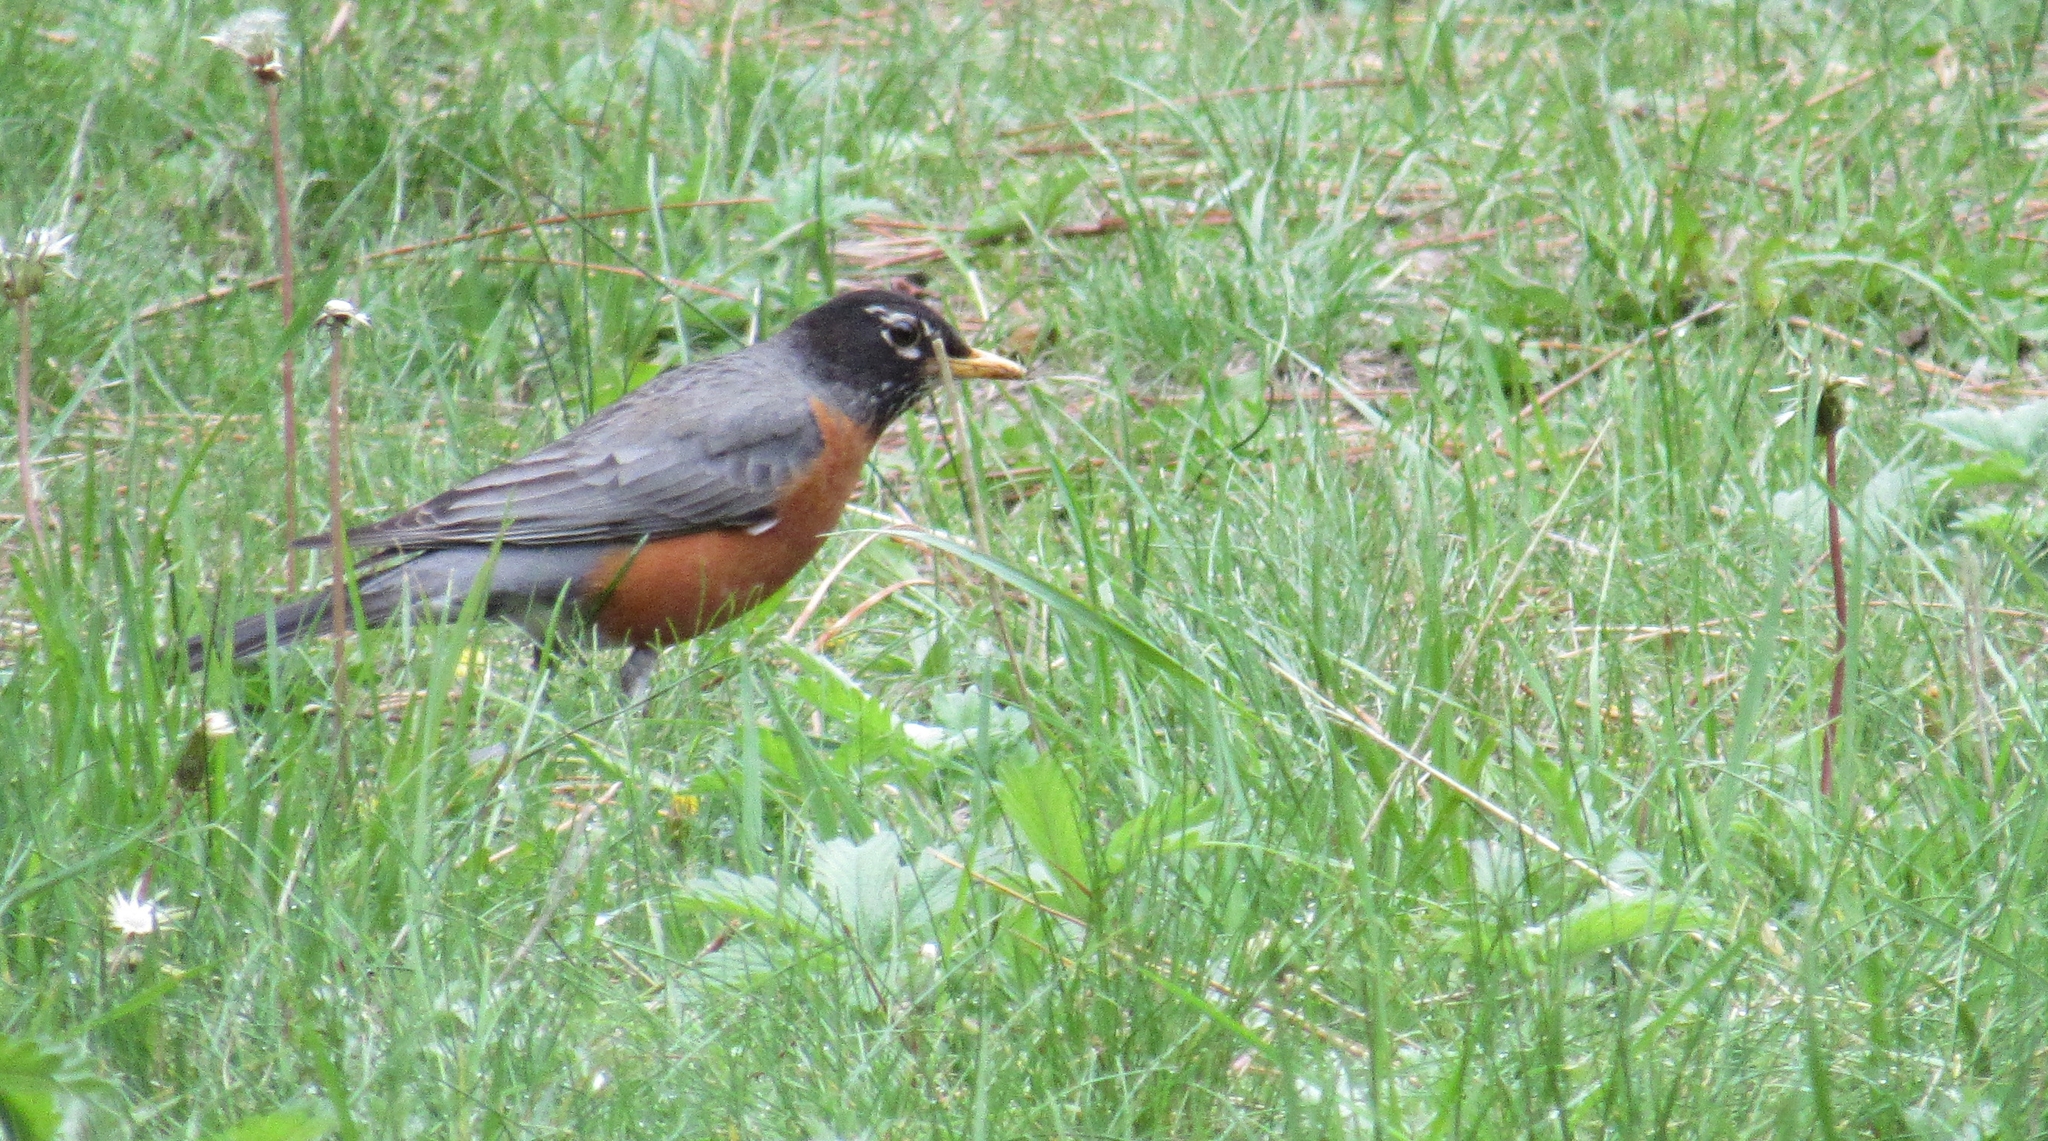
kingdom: Animalia
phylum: Chordata
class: Aves
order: Passeriformes
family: Turdidae
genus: Turdus
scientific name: Turdus migratorius
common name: American robin
